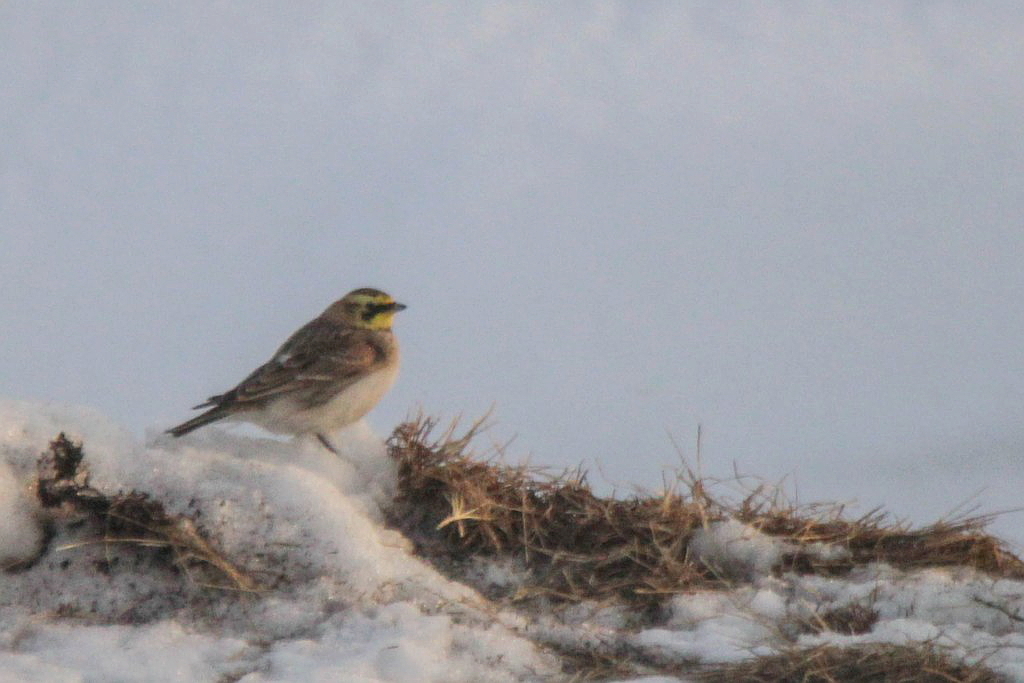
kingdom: Animalia
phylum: Chordata
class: Aves
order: Passeriformes
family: Alaudidae
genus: Eremophila
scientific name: Eremophila alpestris
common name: Horned lark
